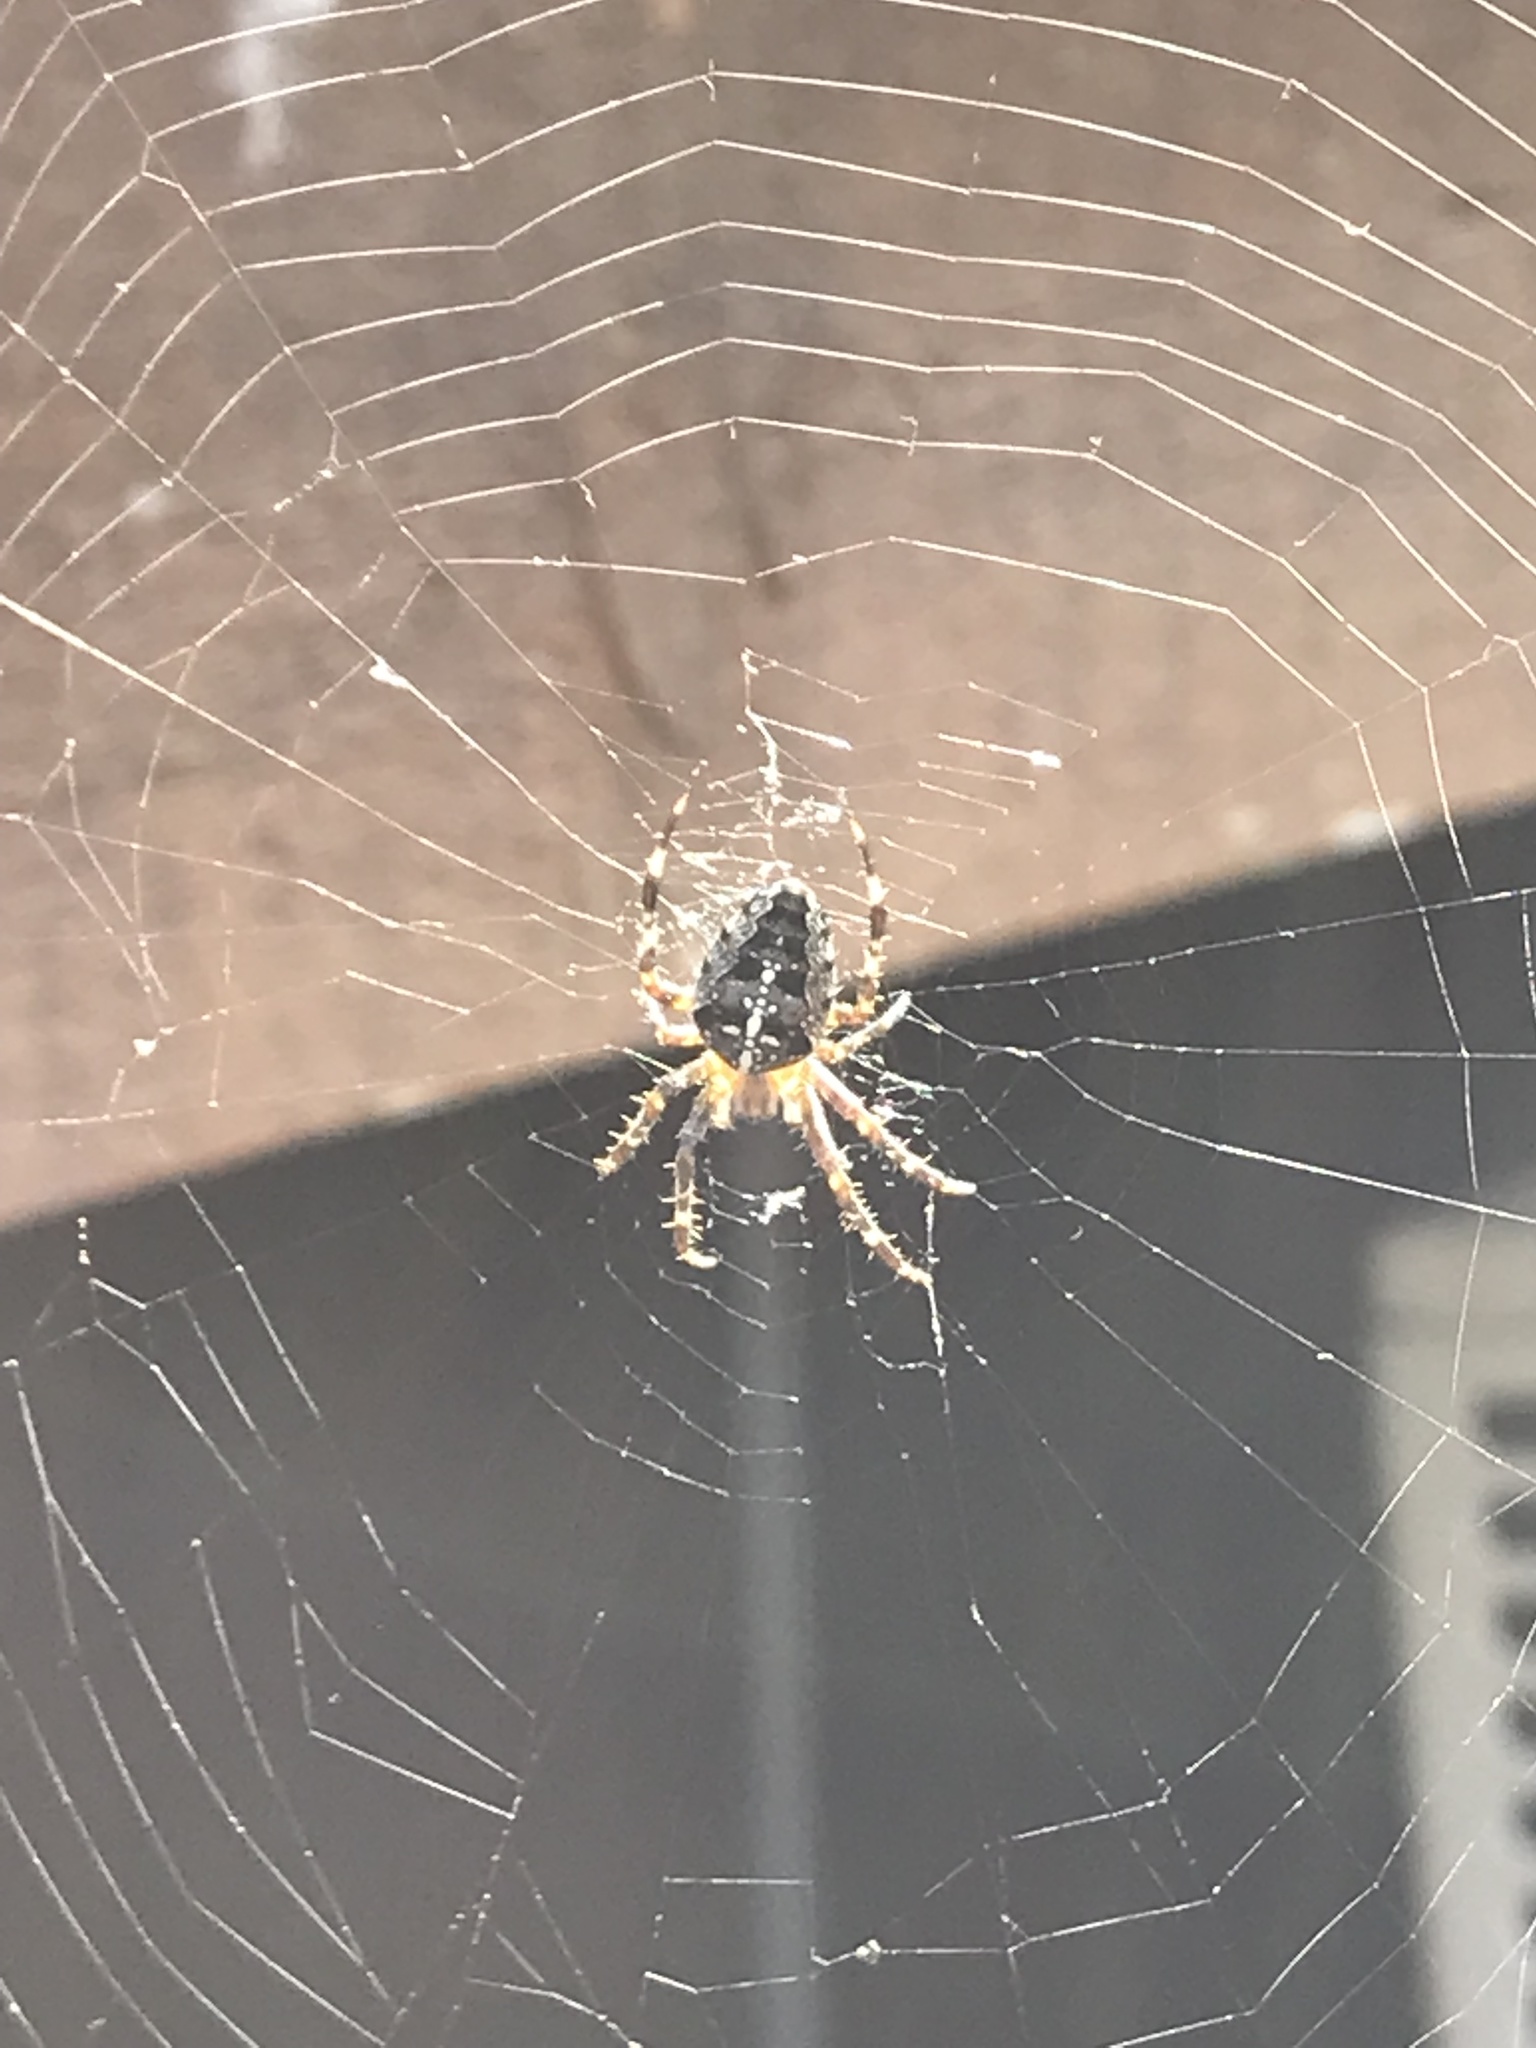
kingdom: Animalia
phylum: Arthropoda
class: Arachnida
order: Araneae
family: Araneidae
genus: Araneus
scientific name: Araneus diadematus
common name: Cross orbweaver
